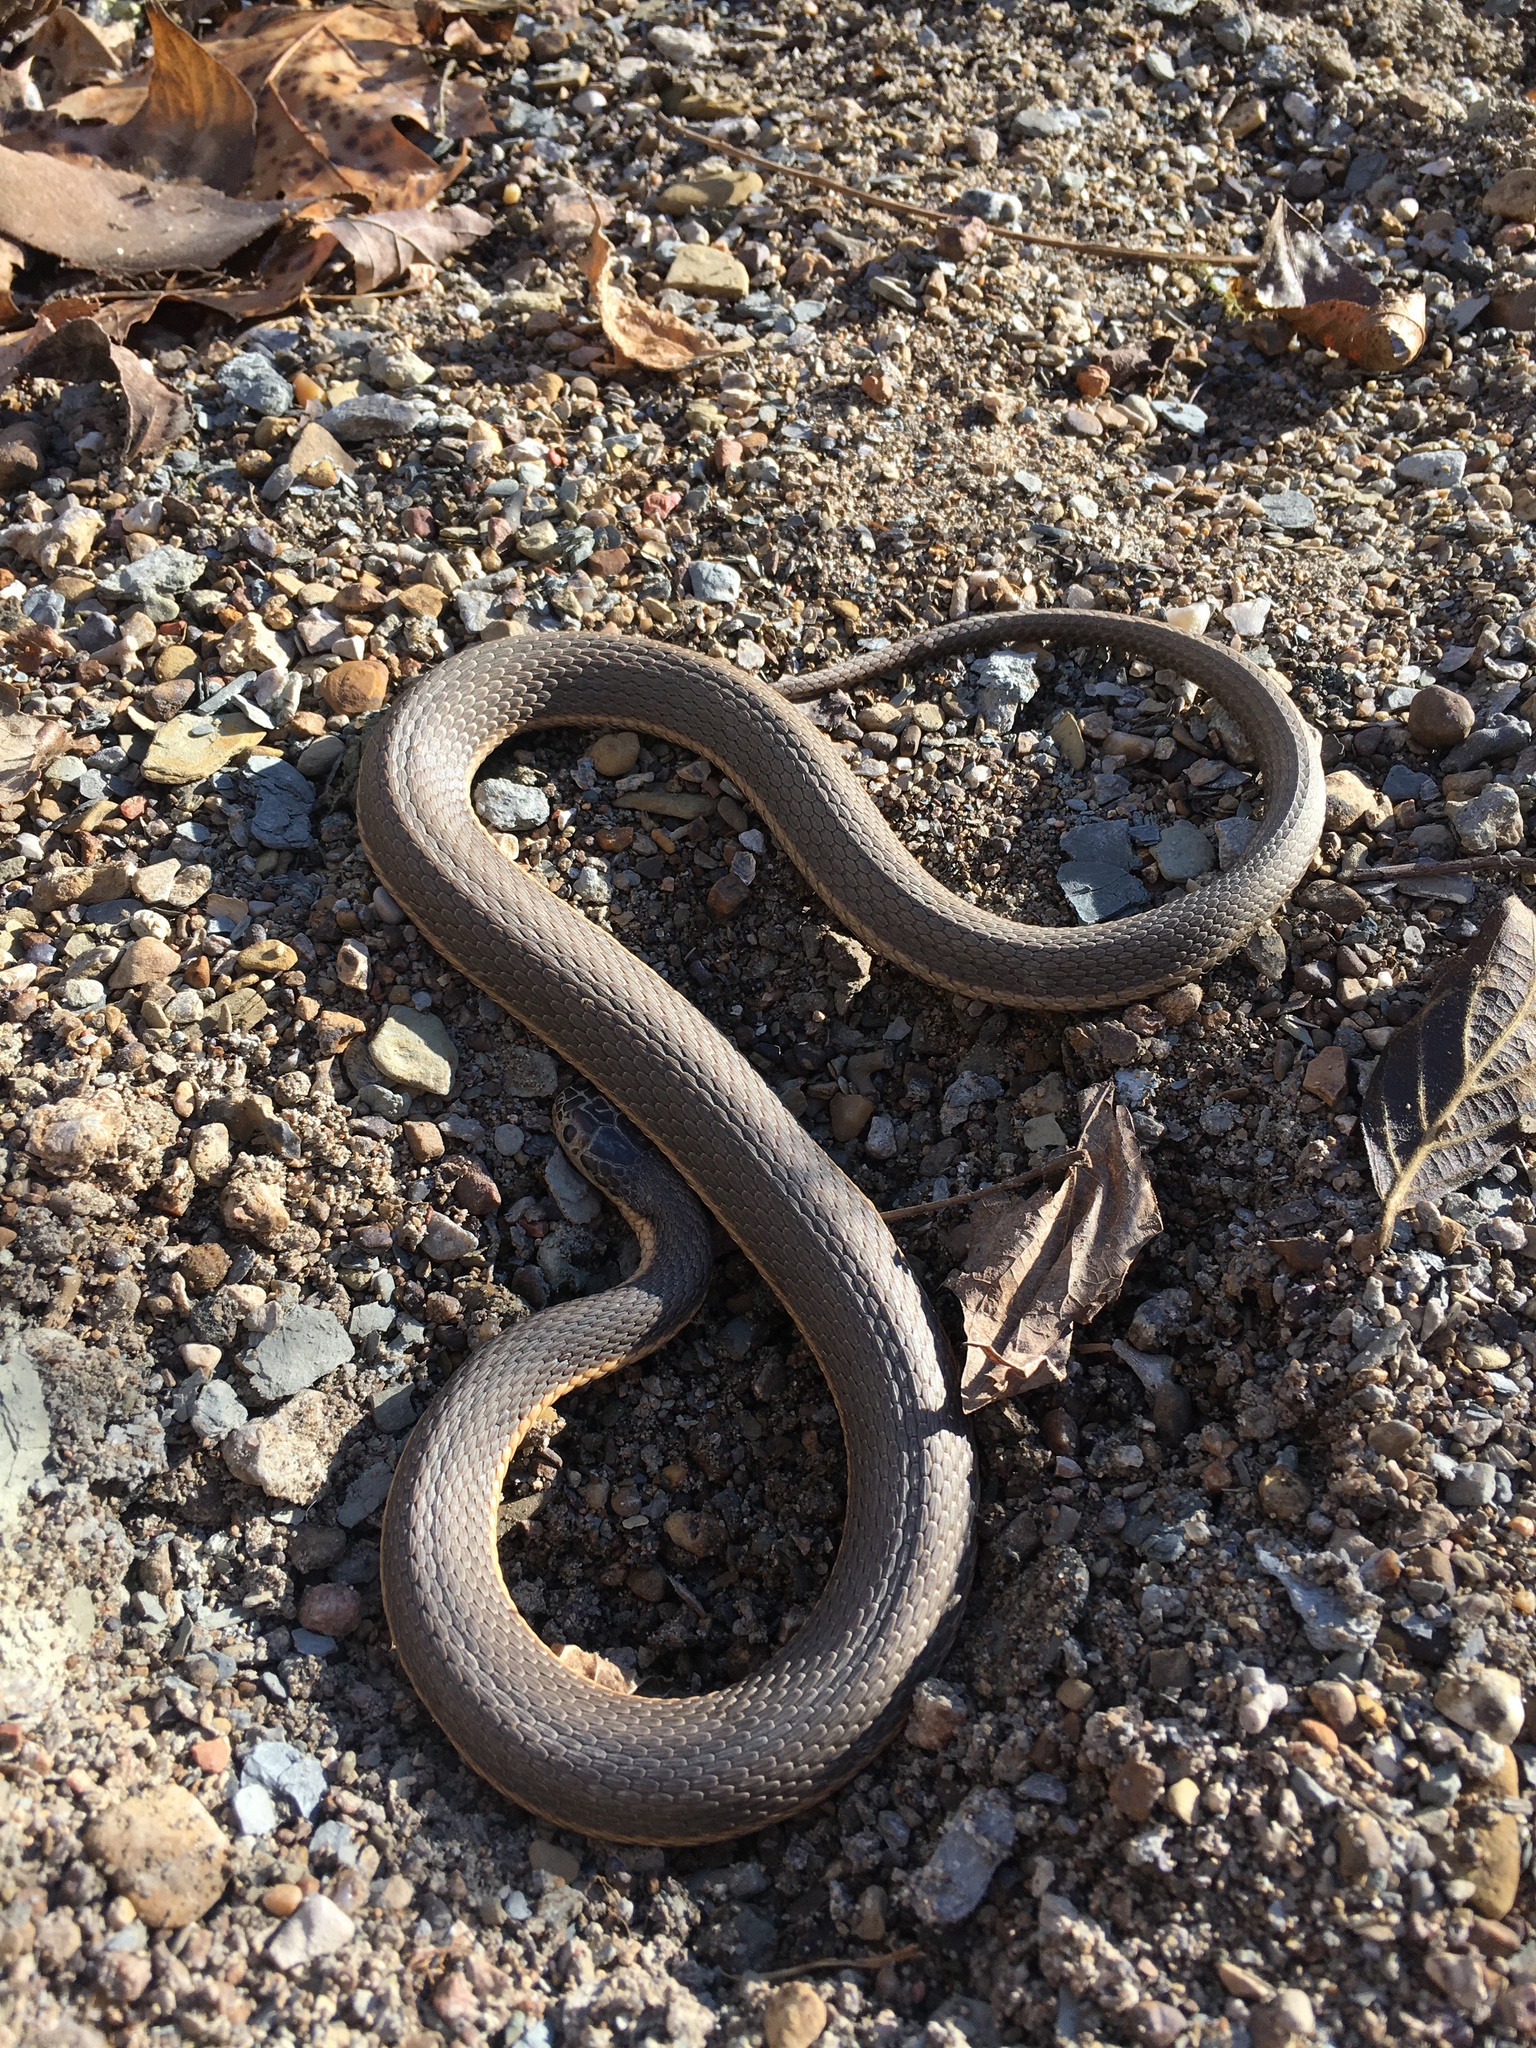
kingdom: Animalia
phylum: Chordata
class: Squamata
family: Colubridae
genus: Regina
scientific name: Regina septemvittata
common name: Queen snake
